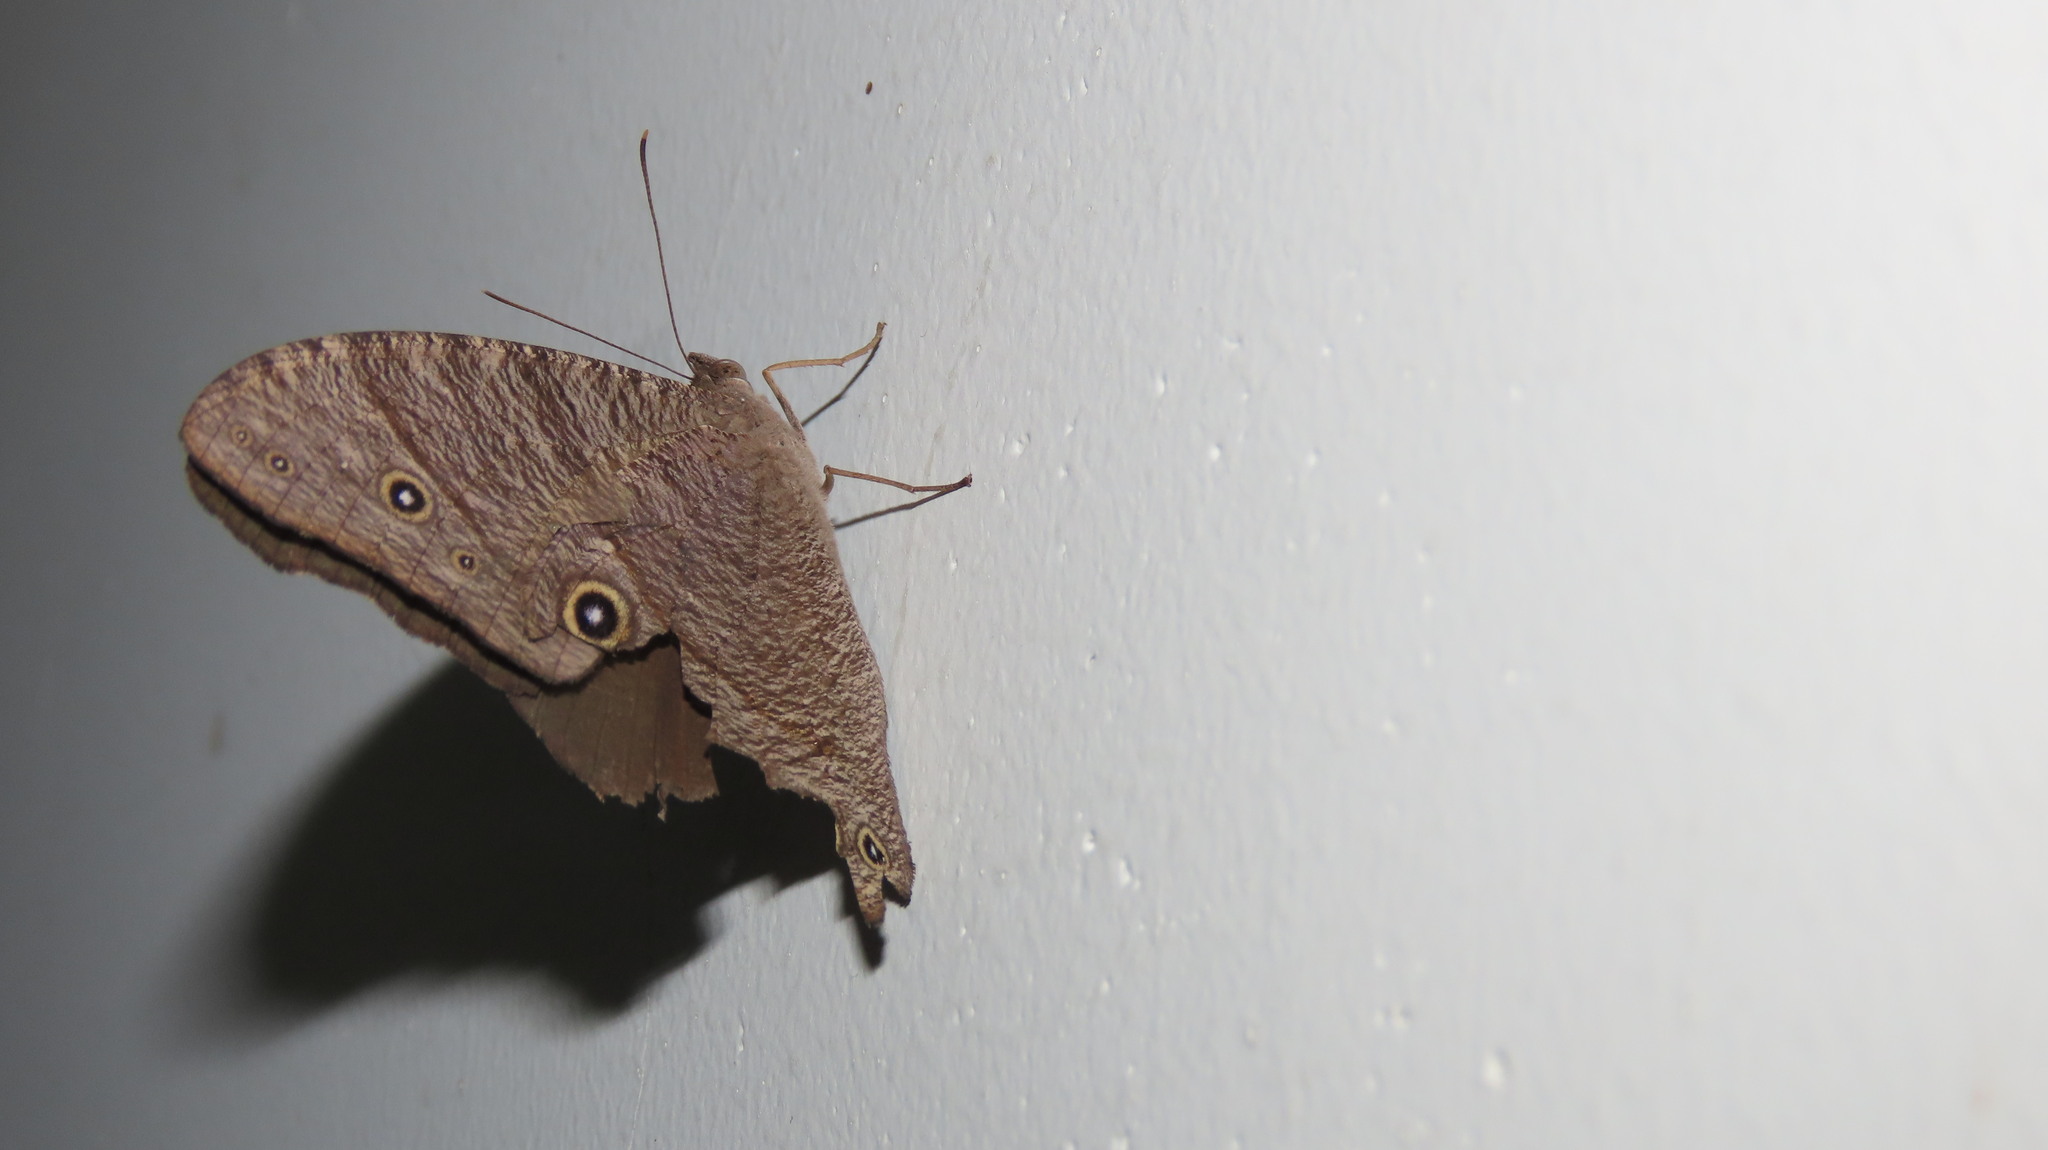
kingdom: Animalia
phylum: Arthropoda
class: Insecta
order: Lepidoptera
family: Nymphalidae
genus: Melanitis
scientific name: Melanitis leda
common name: Twilight brown
